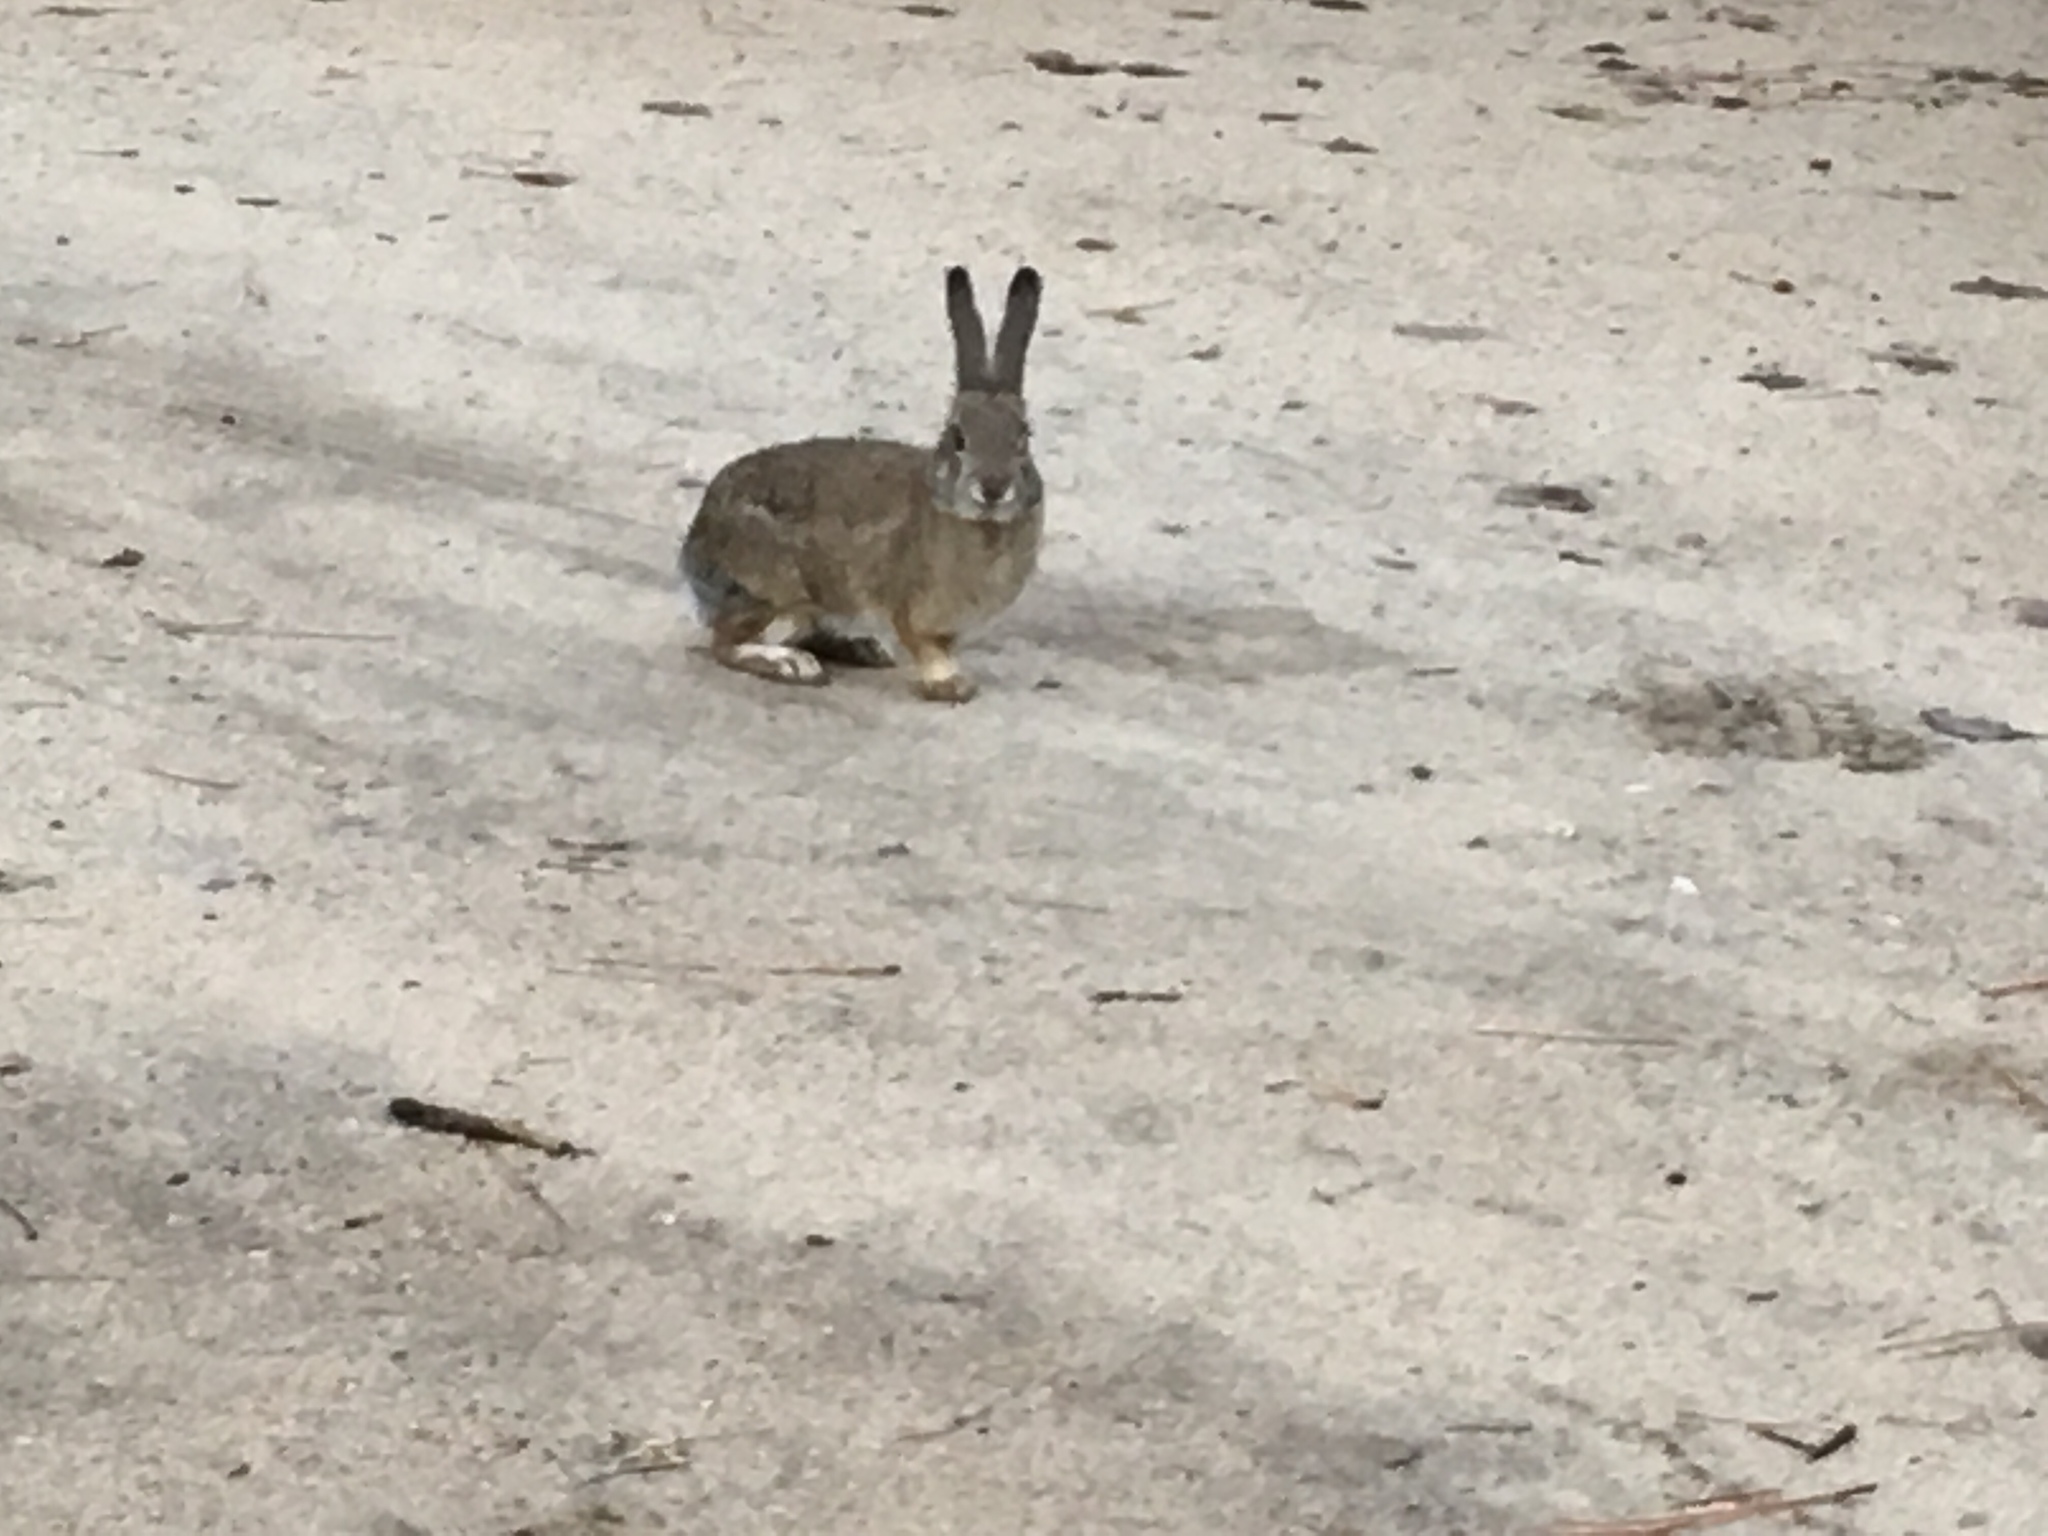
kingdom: Animalia
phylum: Chordata
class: Mammalia
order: Lagomorpha
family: Leporidae
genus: Sylvilagus
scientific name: Sylvilagus audubonii
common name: Desert cottontail
